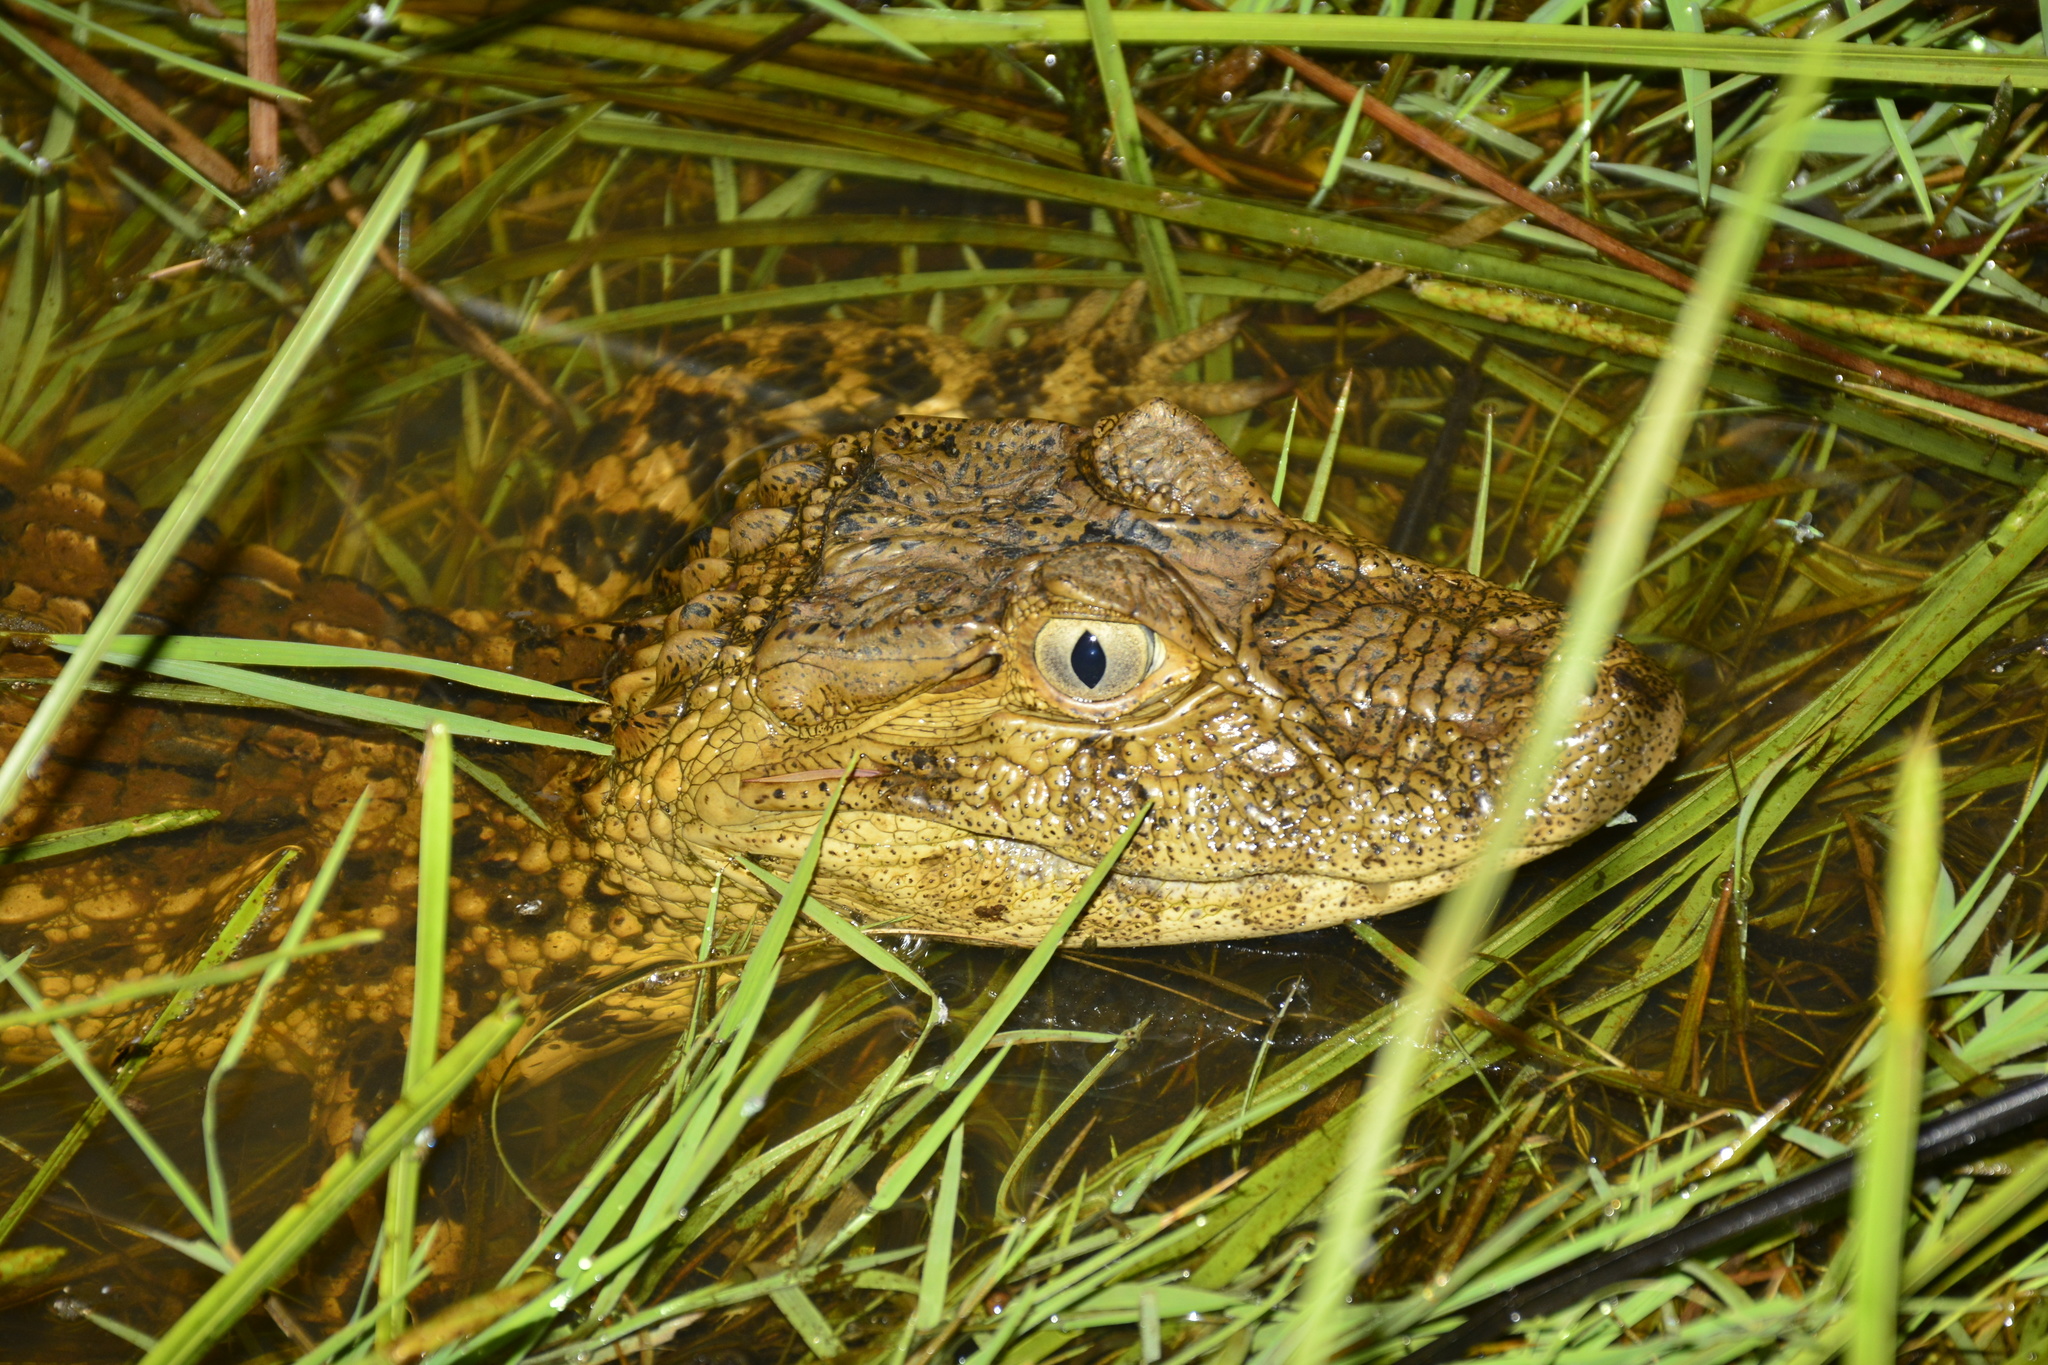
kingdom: Animalia
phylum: Chordata
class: Crocodylia
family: Alligatoridae
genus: Caiman
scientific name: Caiman latirostris
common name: Broad-snouted caiman
